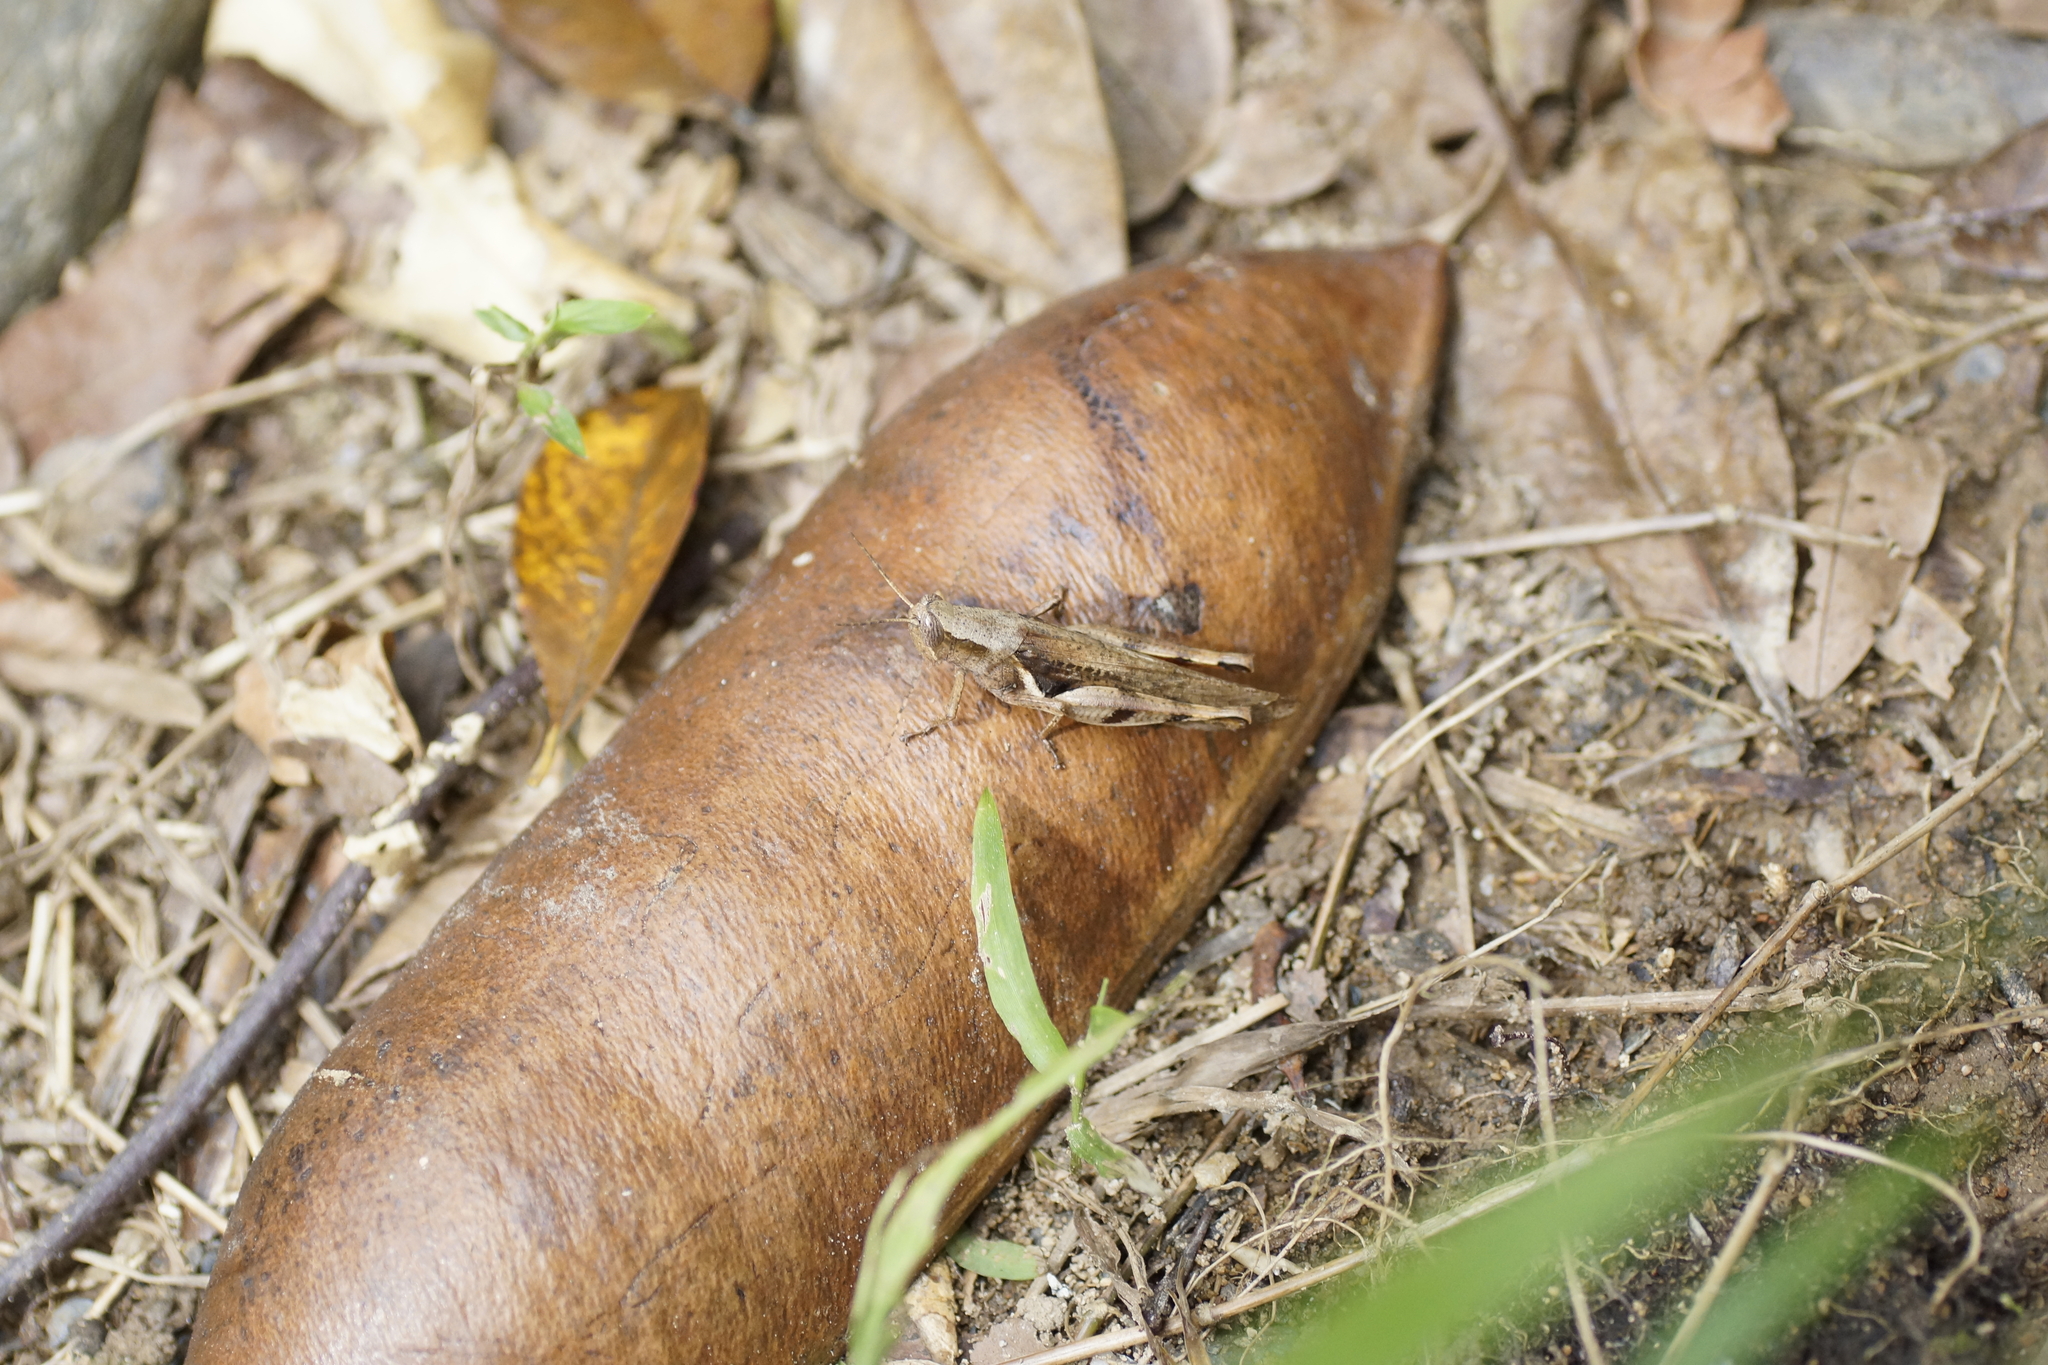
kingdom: Animalia
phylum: Arthropoda
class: Insecta
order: Orthoptera
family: Acrididae
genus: Stenocatantops
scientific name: Stenocatantops angustifrons
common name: Common tropical sharptail
